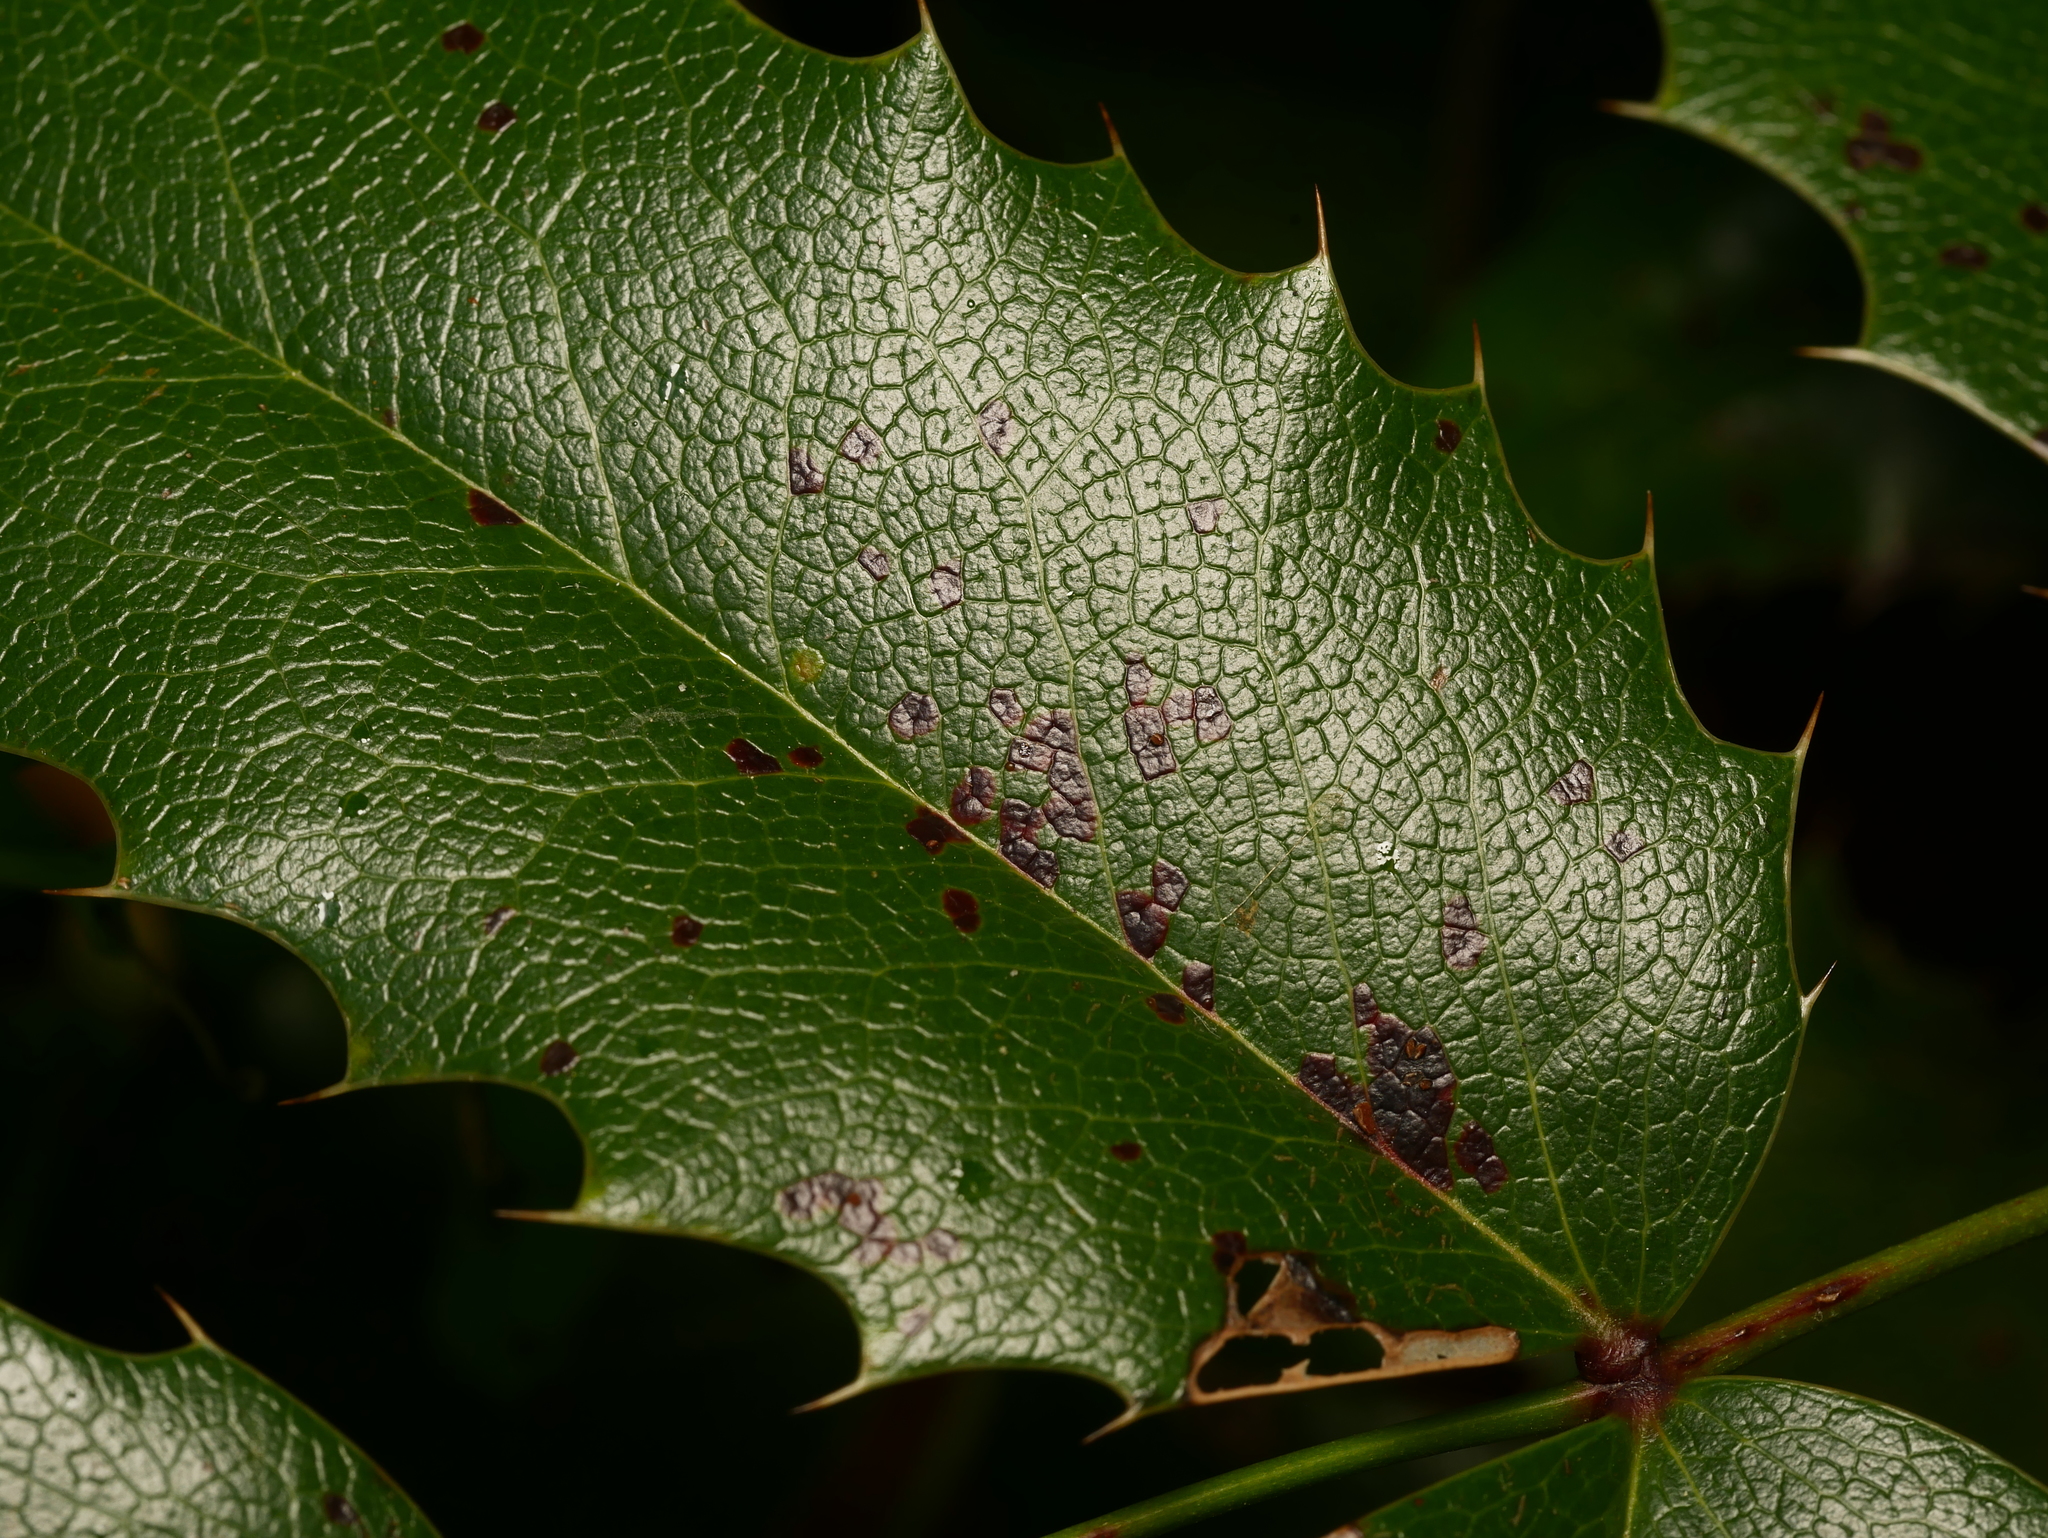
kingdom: Fungi
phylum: Basidiomycota
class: Pucciniomycetes
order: Pucciniales
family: Pucciniaceae
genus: Cumminsiella
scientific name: Cumminsiella mirabilissima
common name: Mahonia rust
